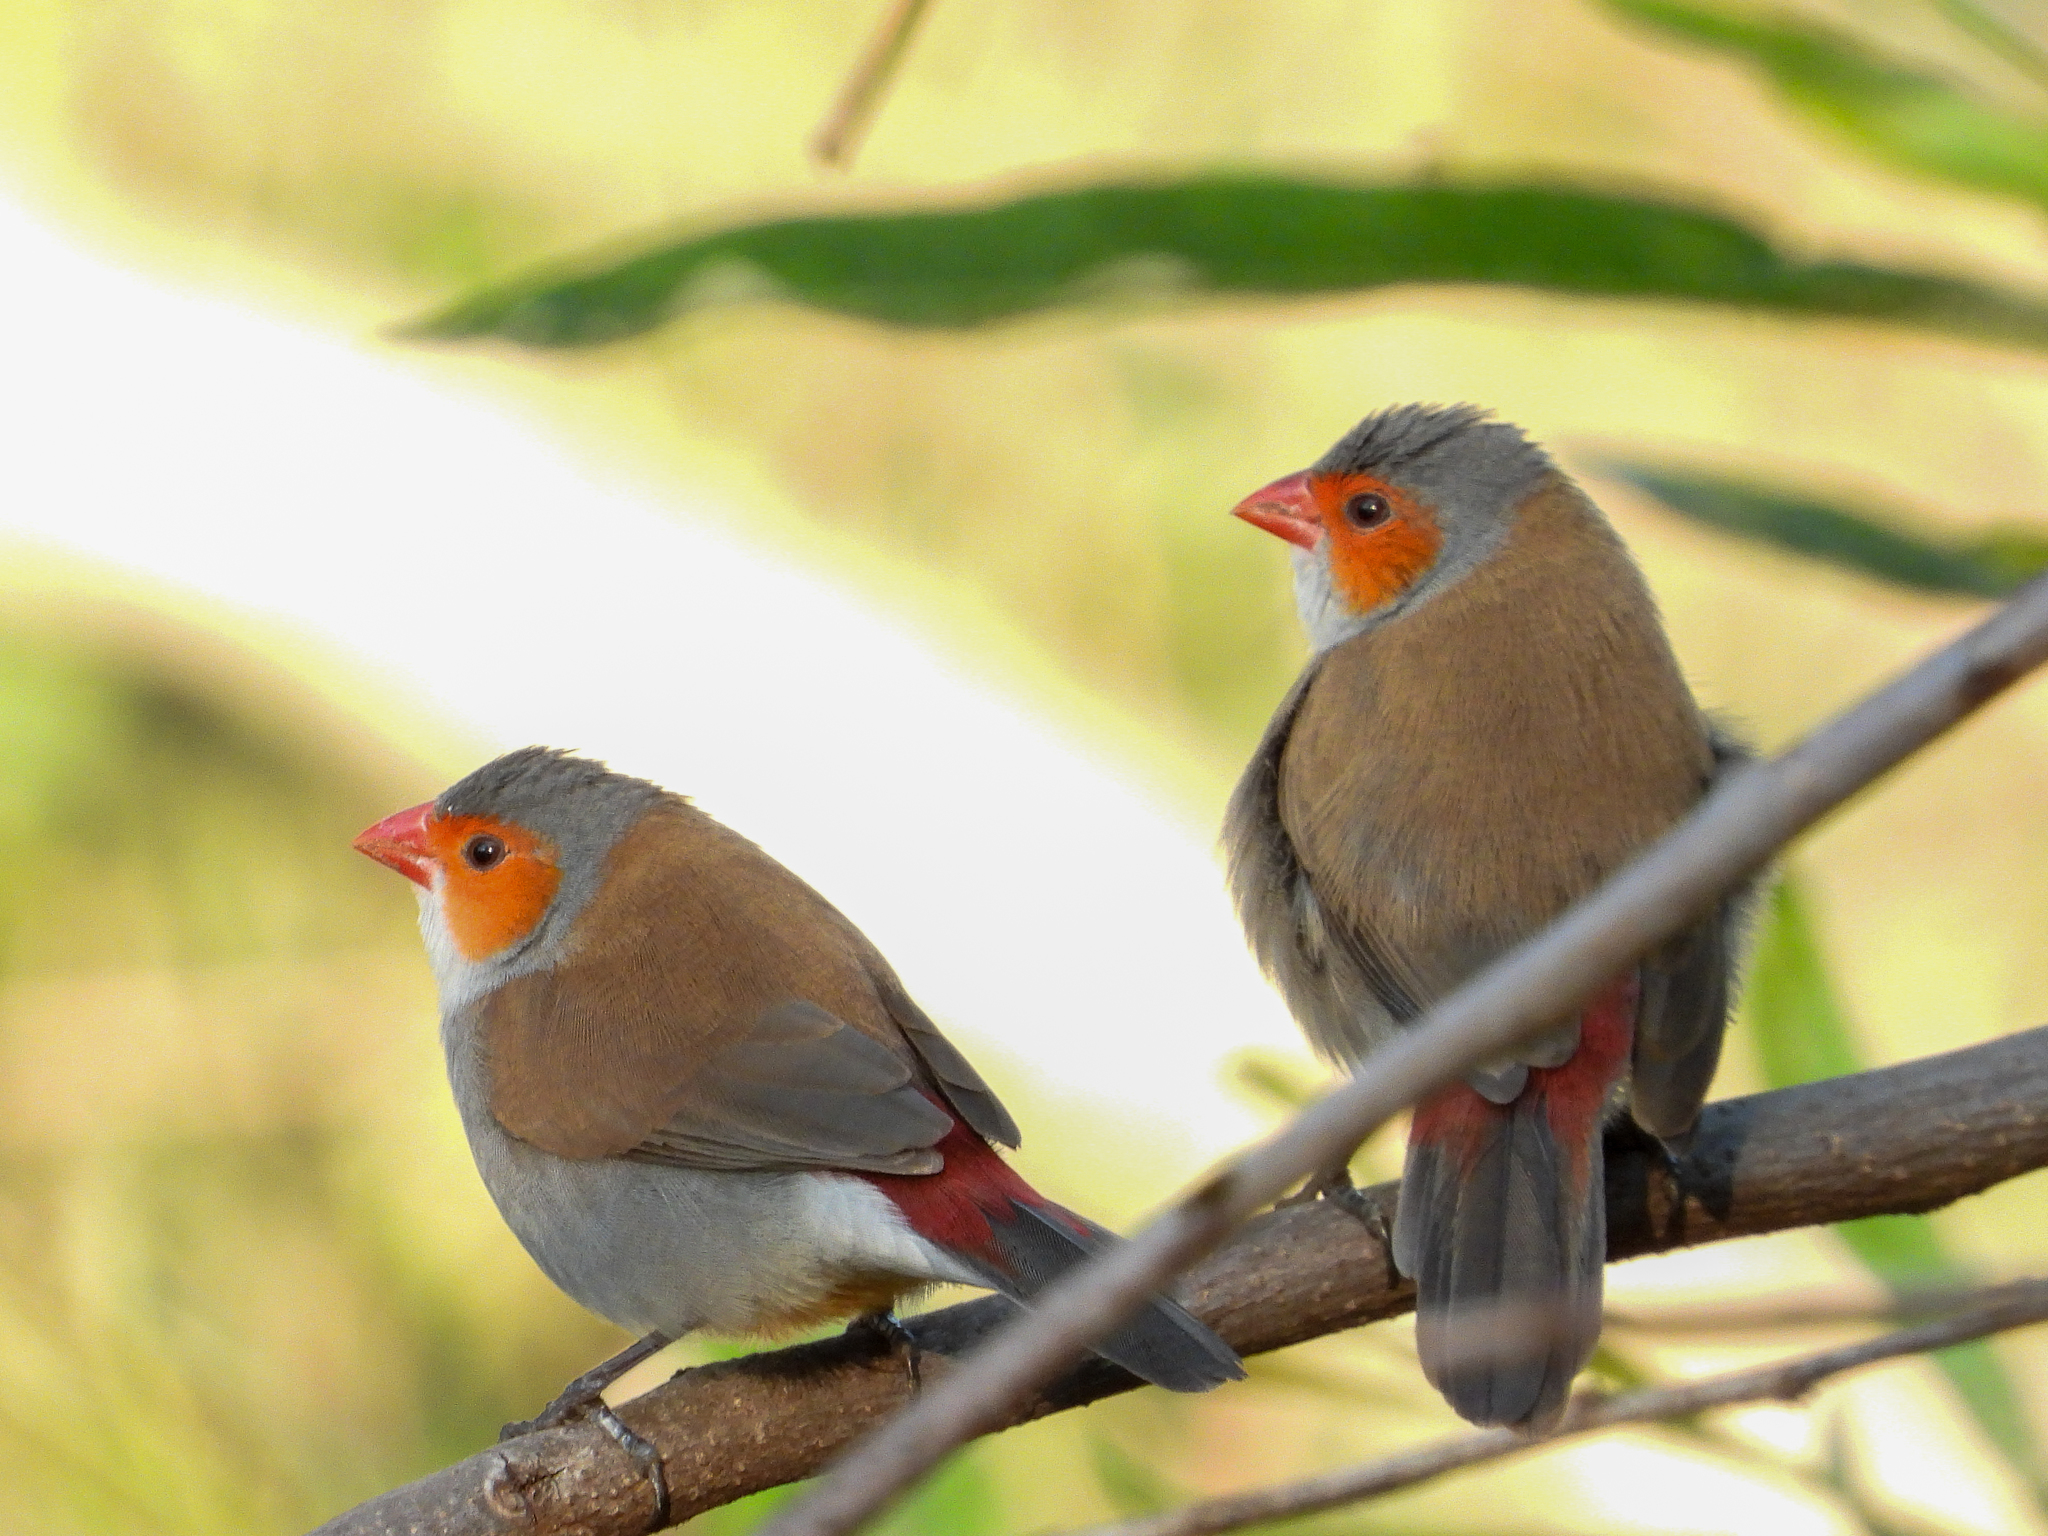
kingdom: Animalia
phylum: Chordata
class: Aves
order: Passeriformes
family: Estrildidae
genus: Estrilda
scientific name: Estrilda melpoda
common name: Orange-cheeked waxbill
